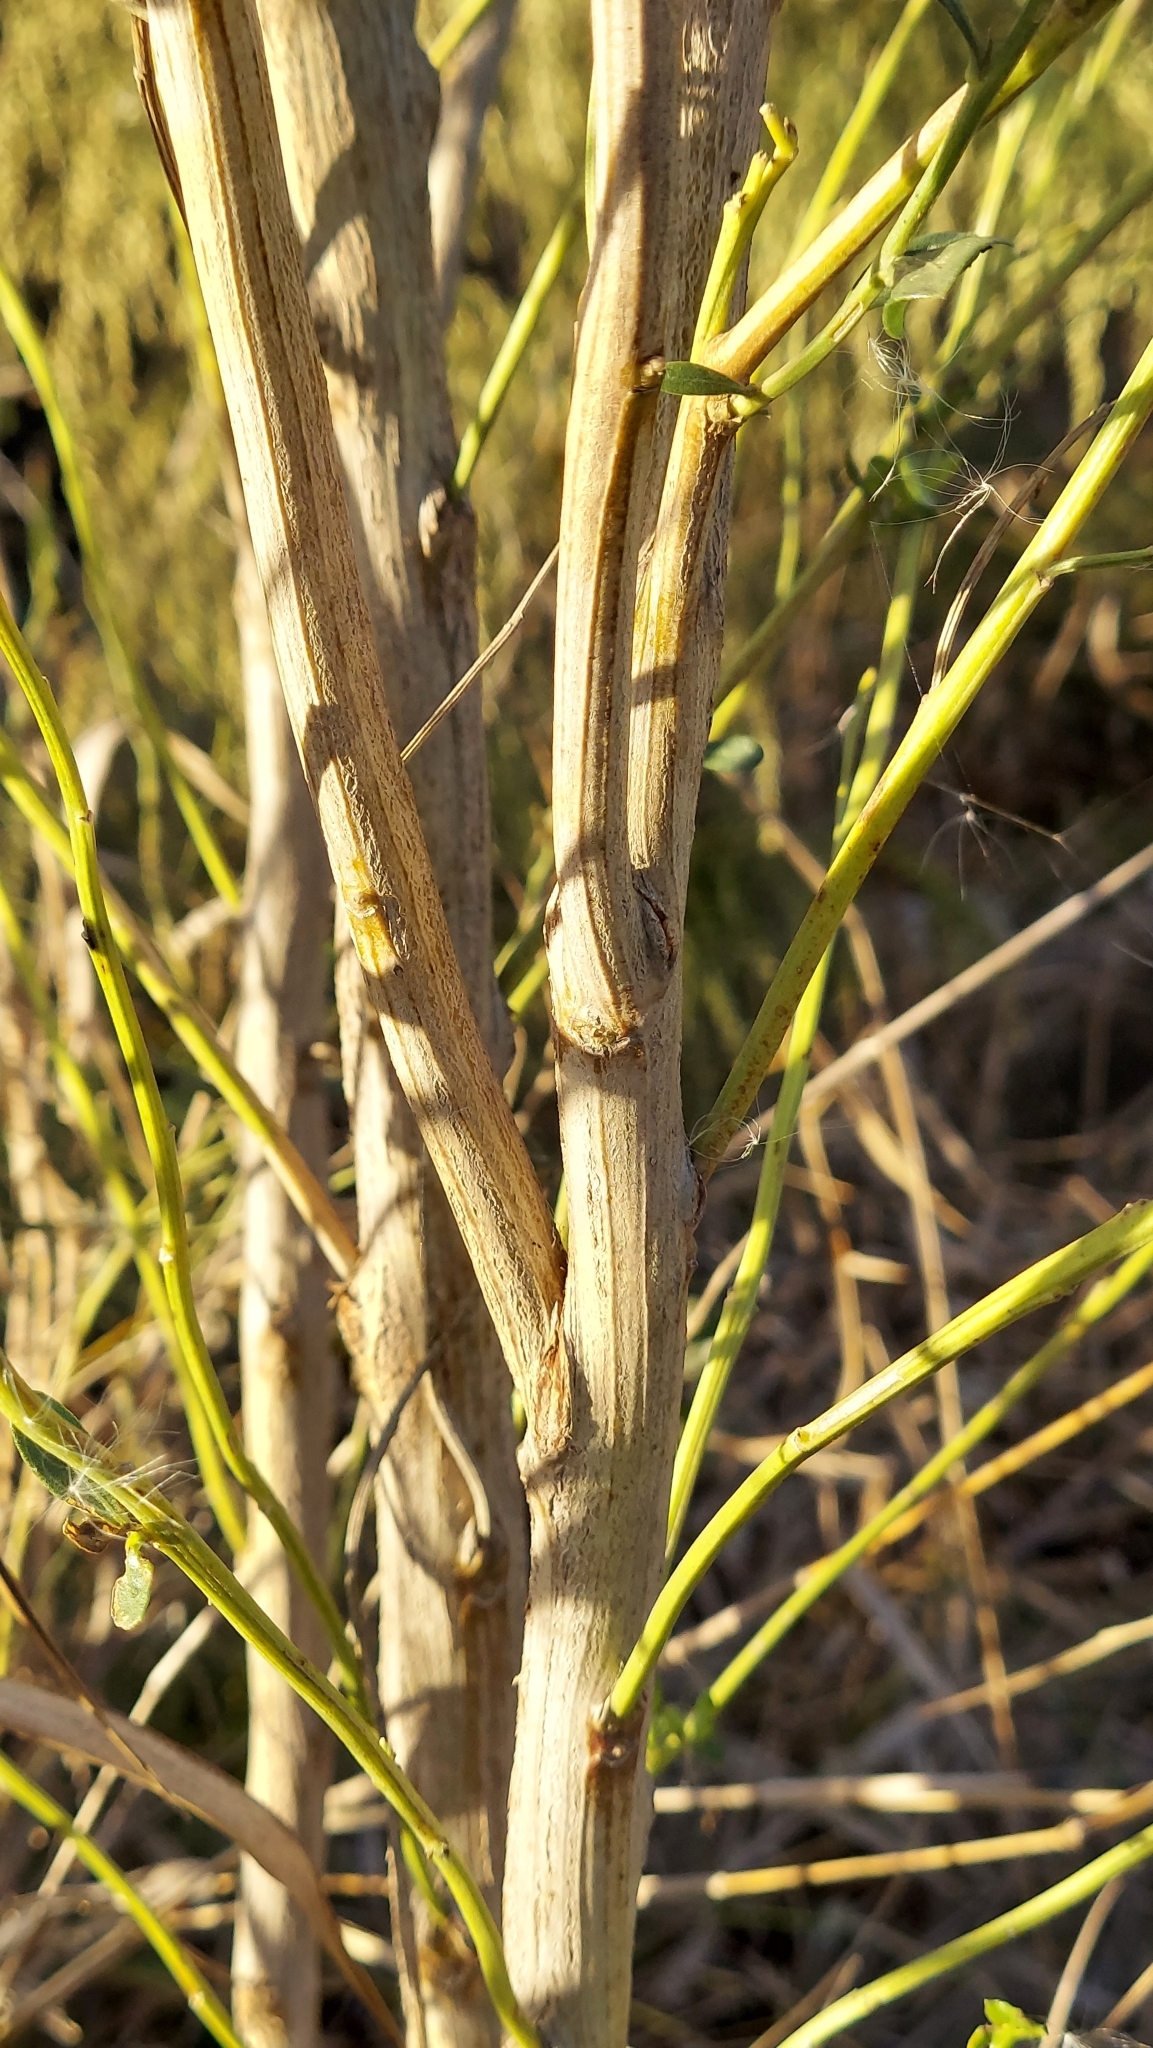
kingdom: Plantae
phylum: Tracheophyta
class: Magnoliopsida
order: Asterales
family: Asteraceae
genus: Baccharis
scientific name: Baccharis halimifolia
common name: Eastern baccharis
